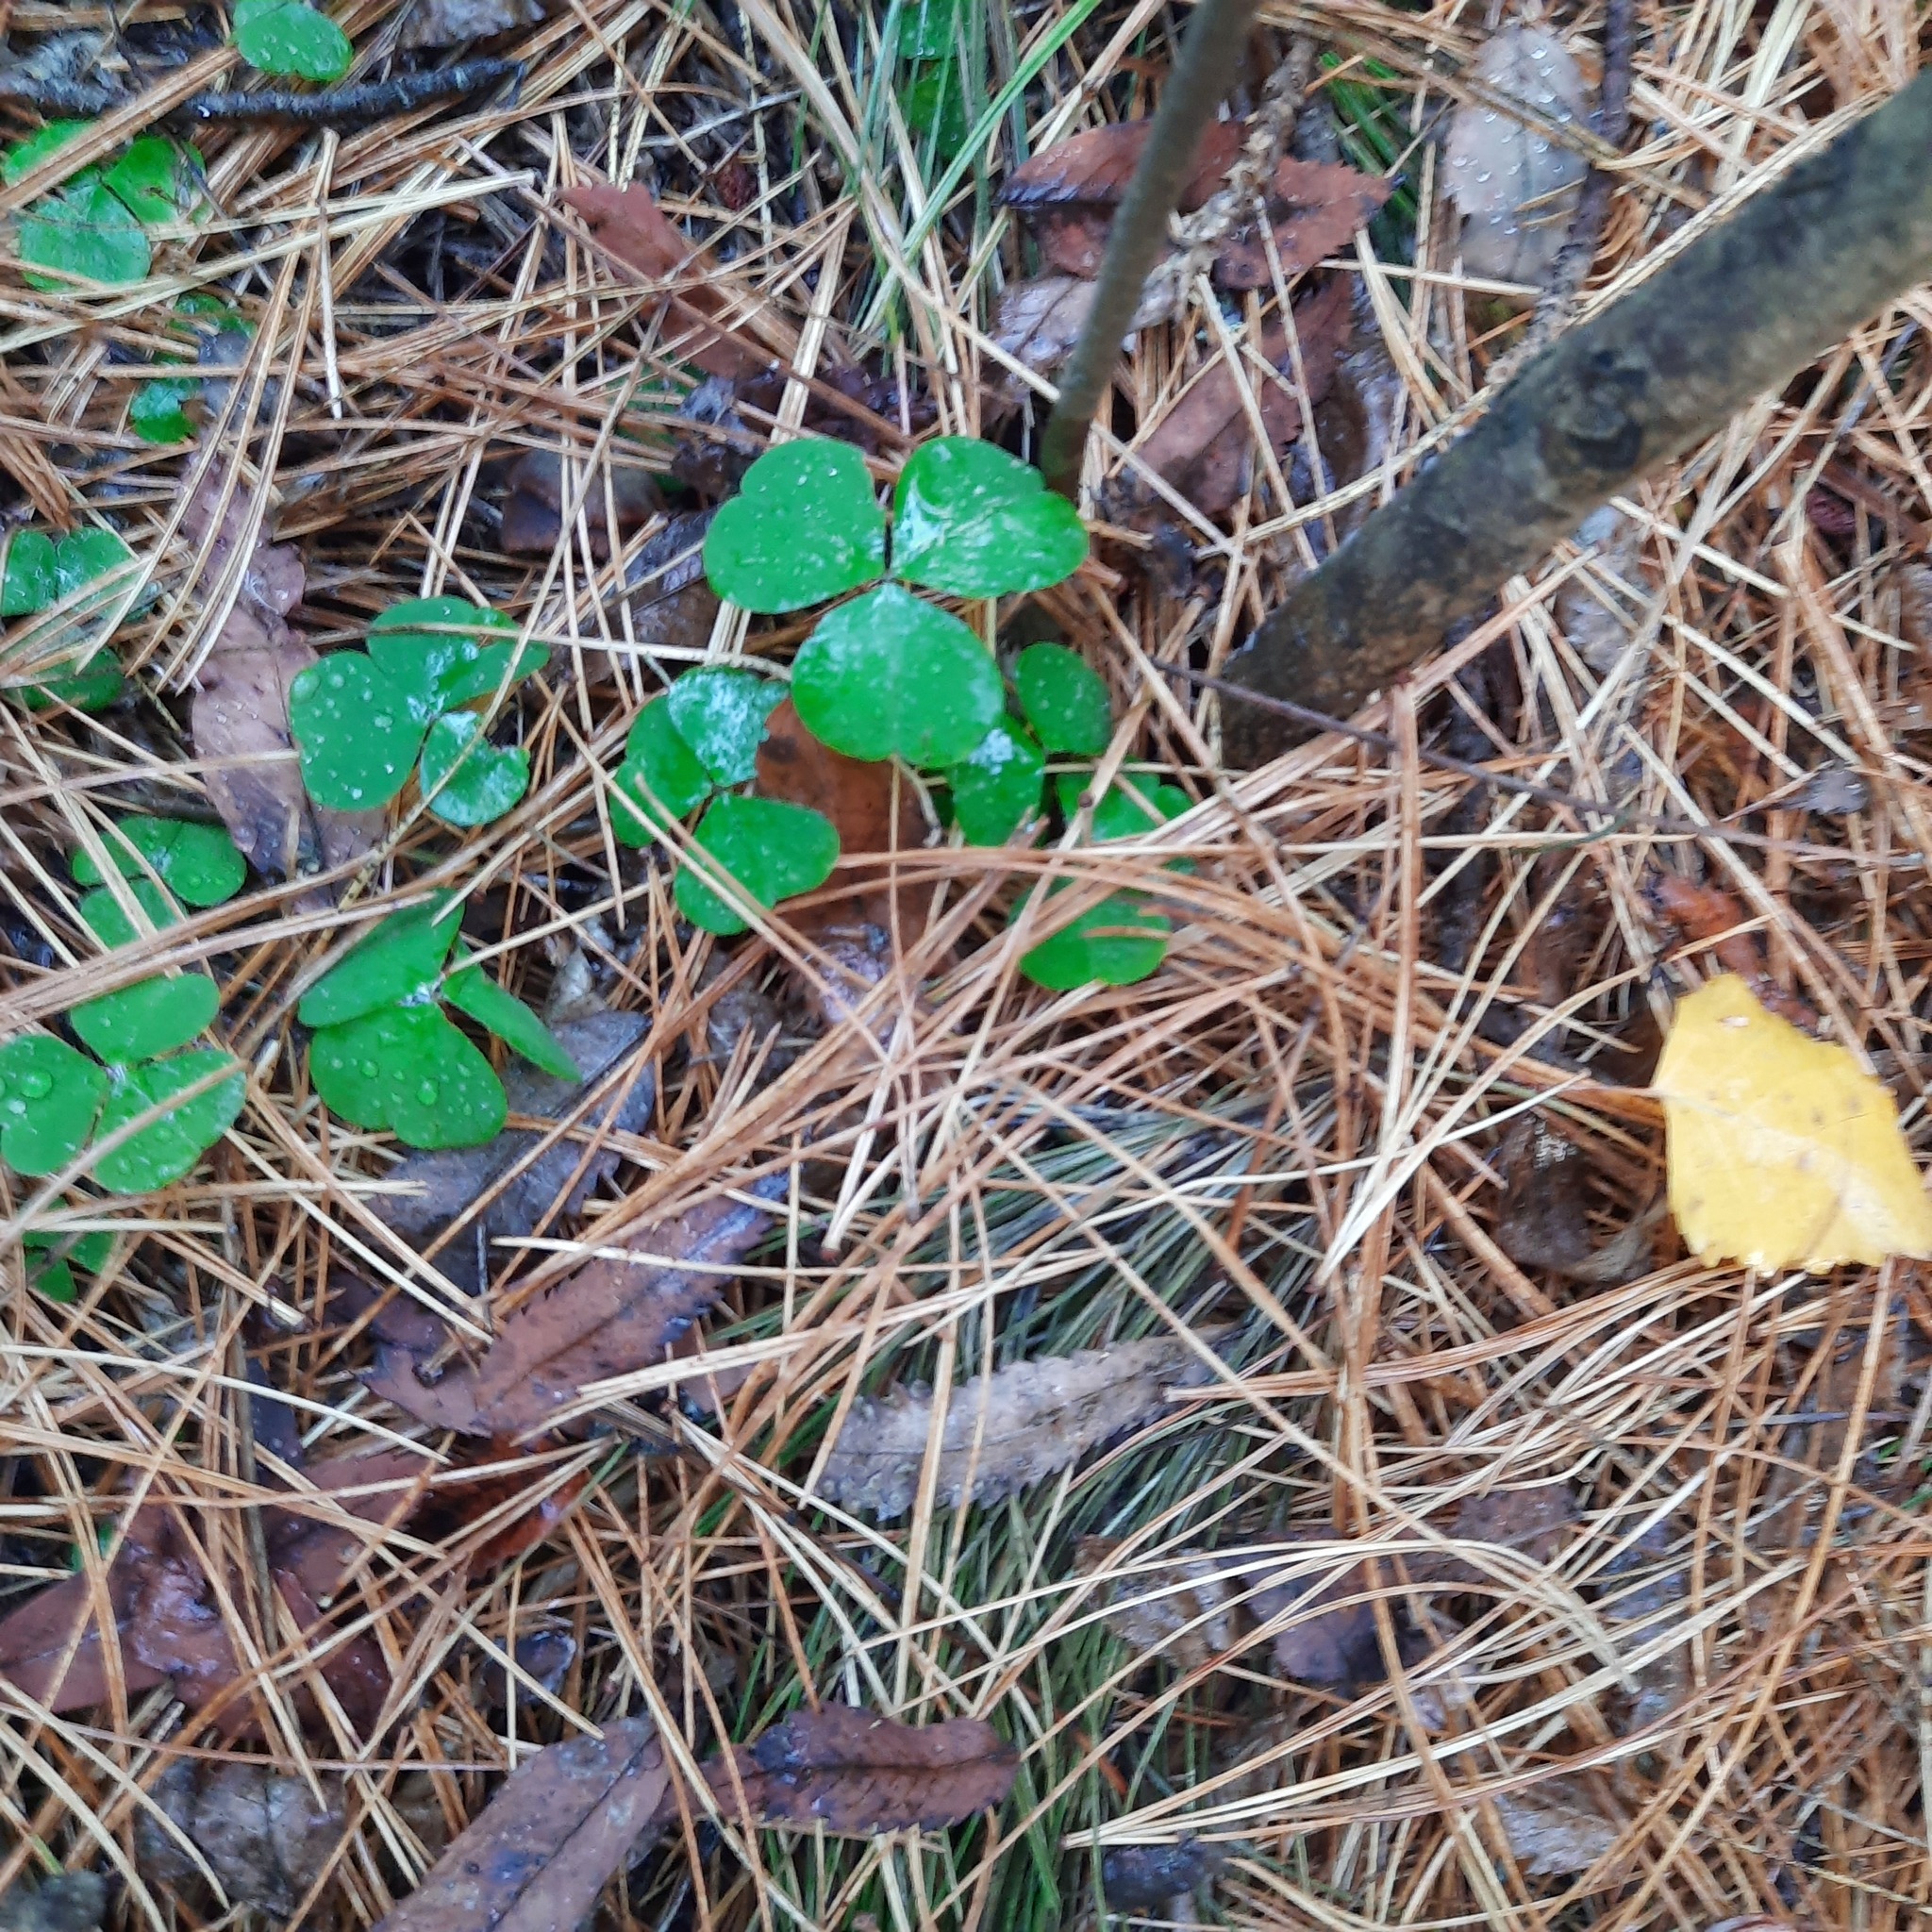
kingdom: Plantae
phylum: Tracheophyta
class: Magnoliopsida
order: Oxalidales
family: Oxalidaceae
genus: Oxalis
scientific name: Oxalis acetosella
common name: Wood-sorrel
